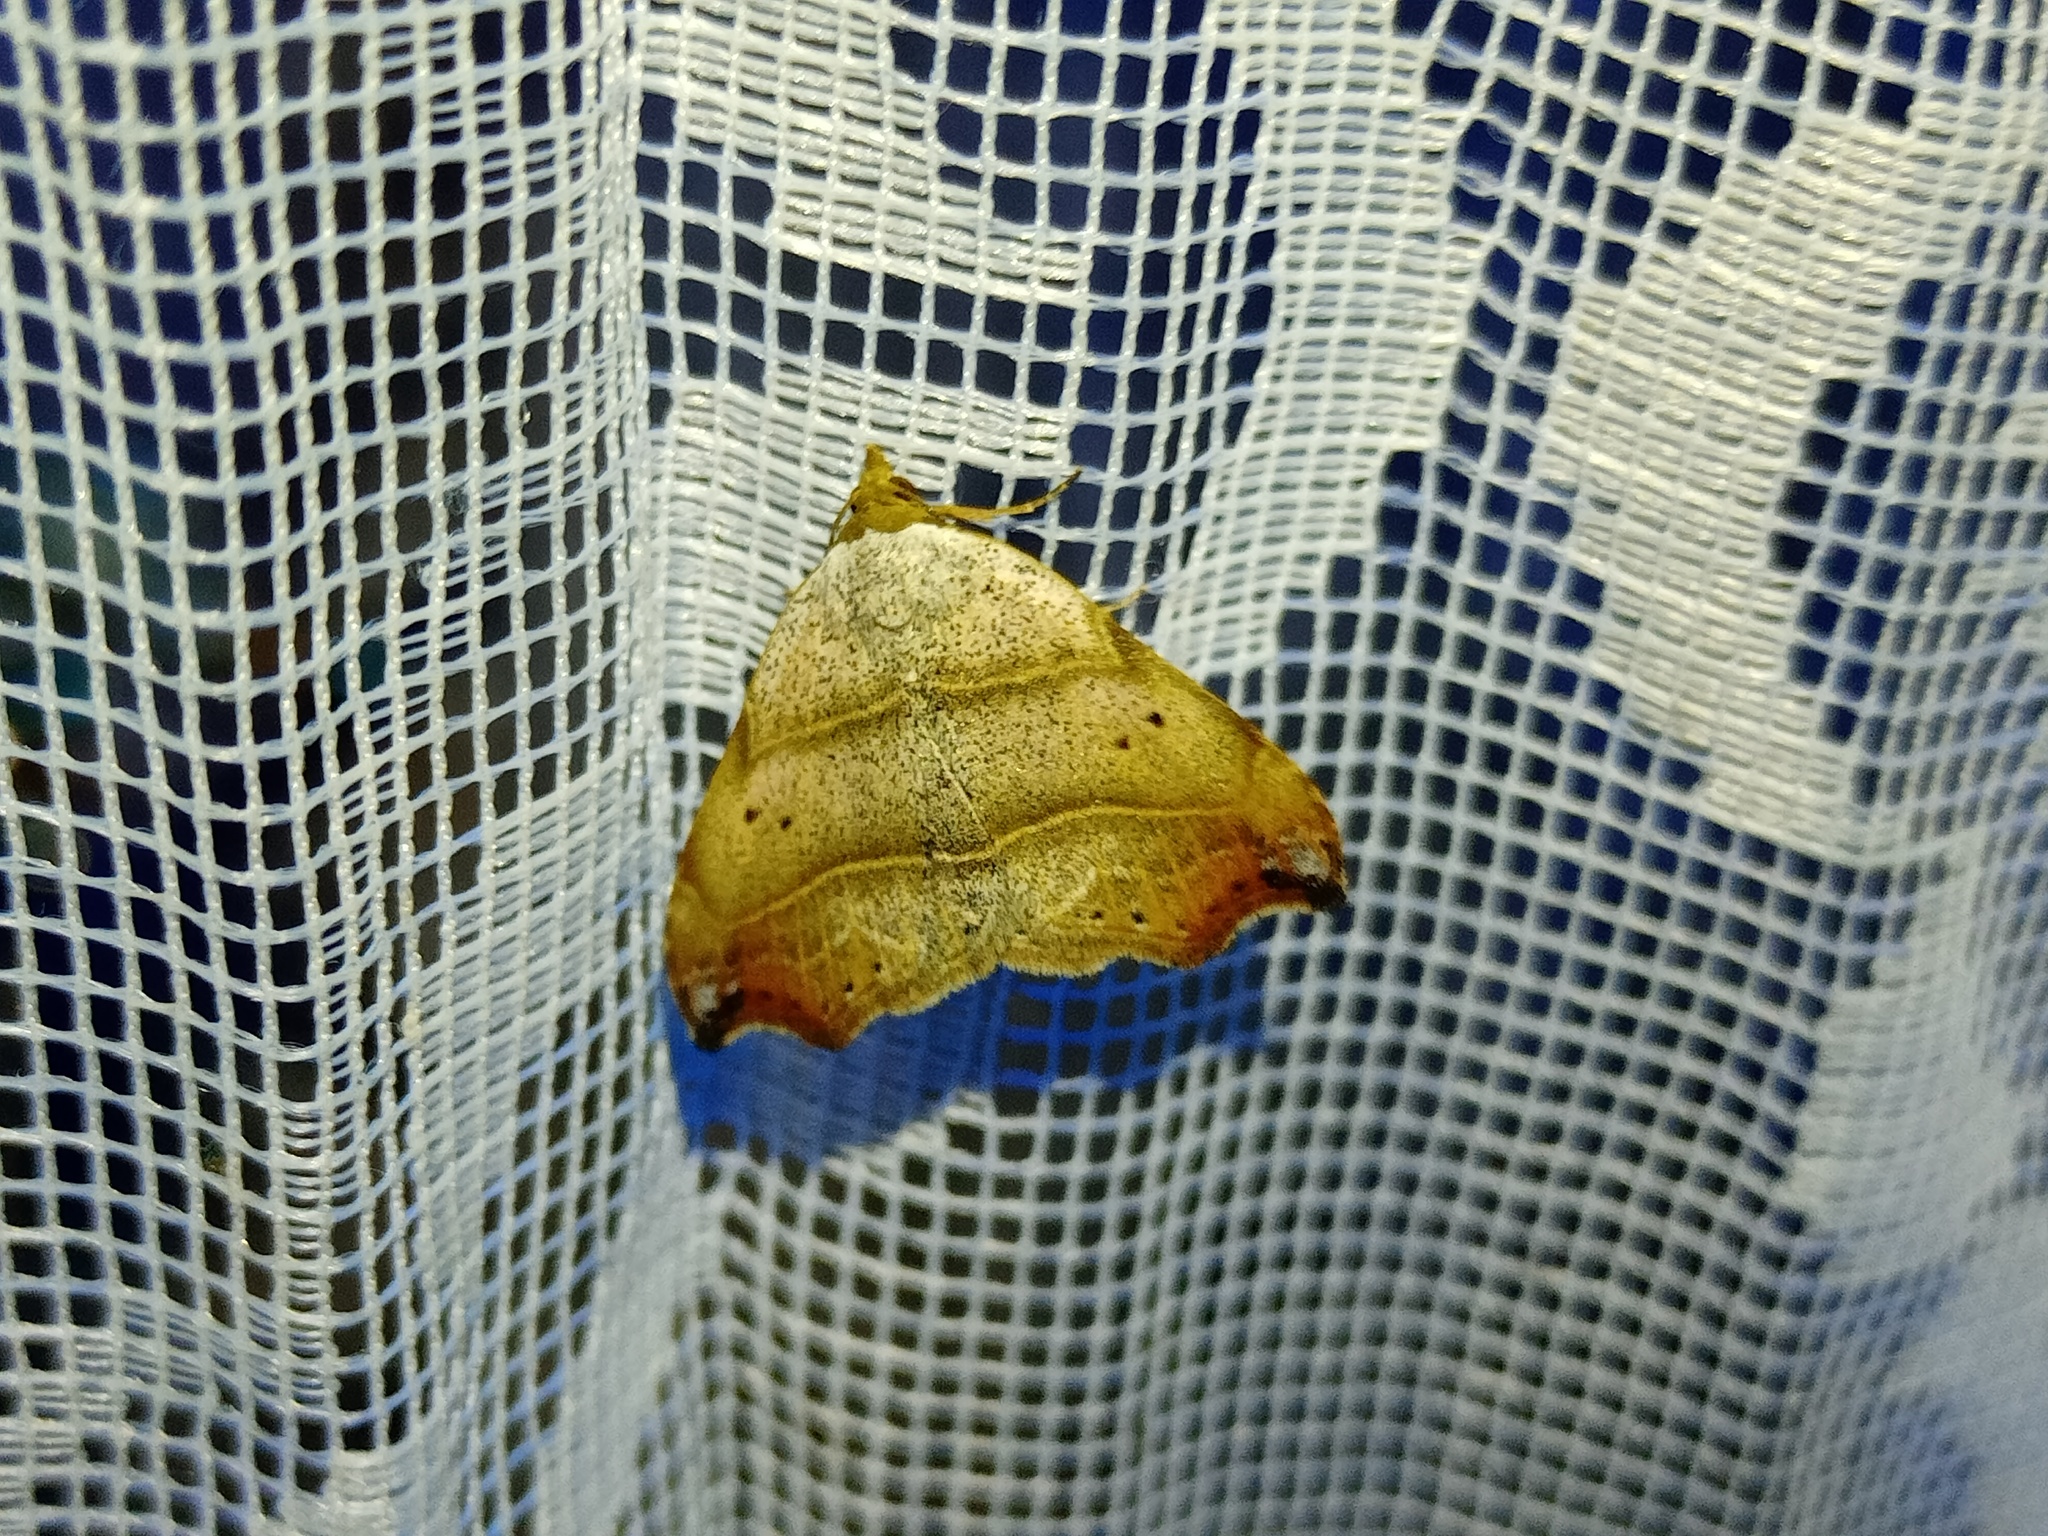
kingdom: Animalia
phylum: Arthropoda
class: Insecta
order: Lepidoptera
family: Erebidae
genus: Laspeyria
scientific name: Laspeyria flexula
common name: Beautiful hook-tip
